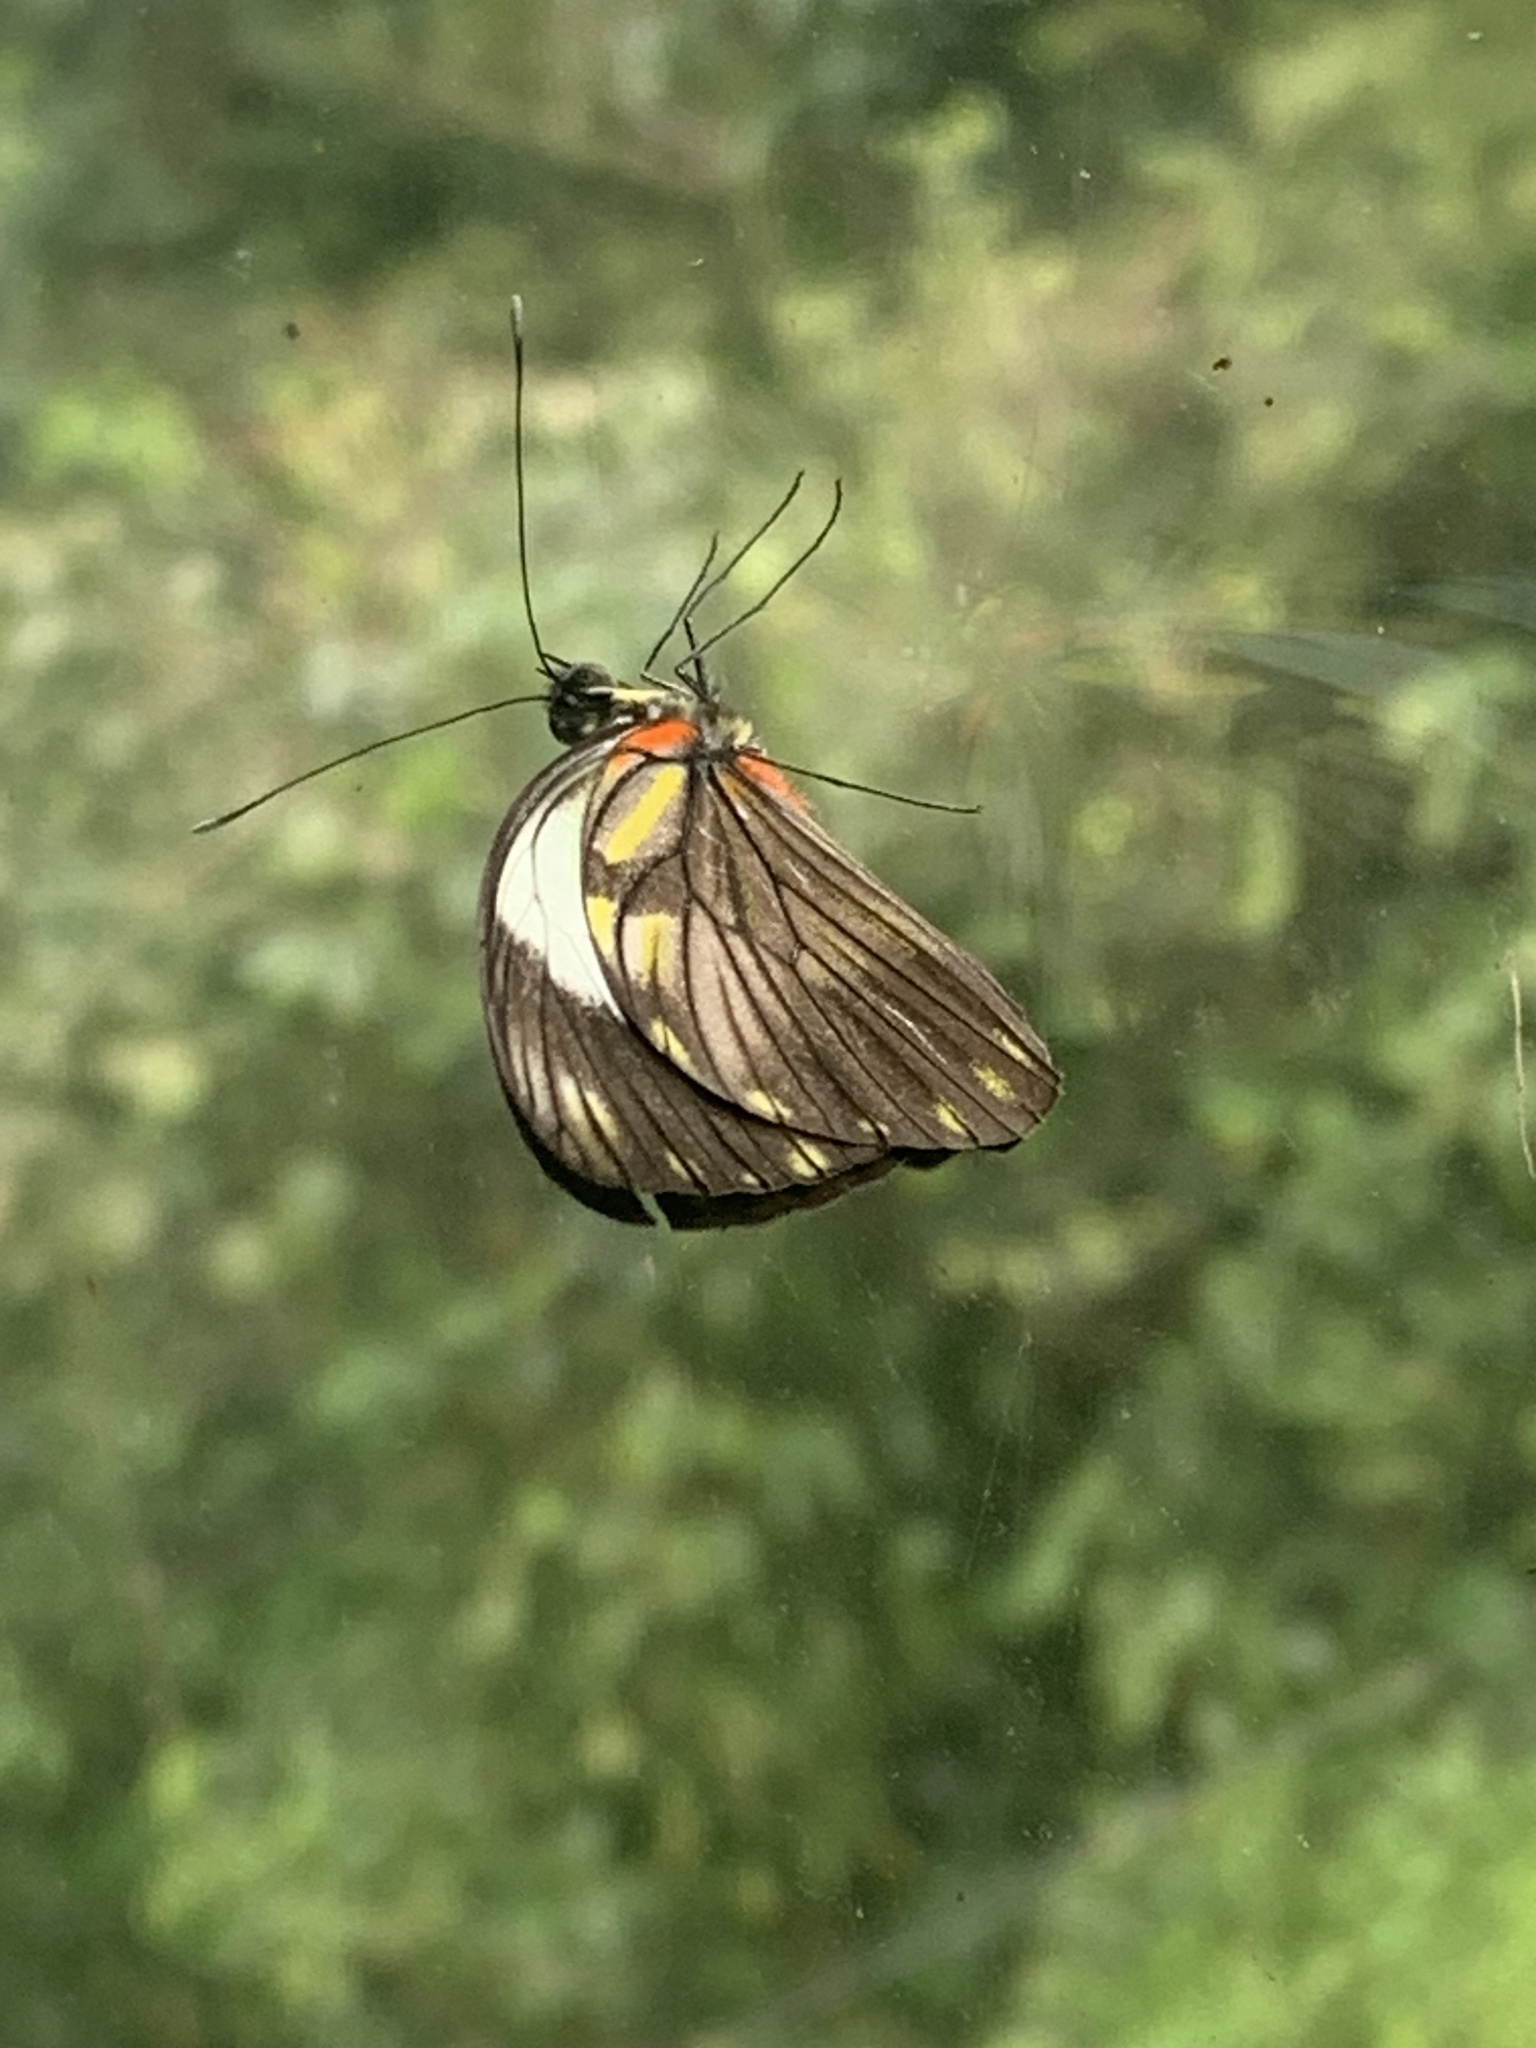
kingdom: Animalia
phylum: Arthropoda
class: Insecta
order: Lepidoptera
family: Pieridae
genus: Pieriballia
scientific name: Pieriballia viardi
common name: Painted white
